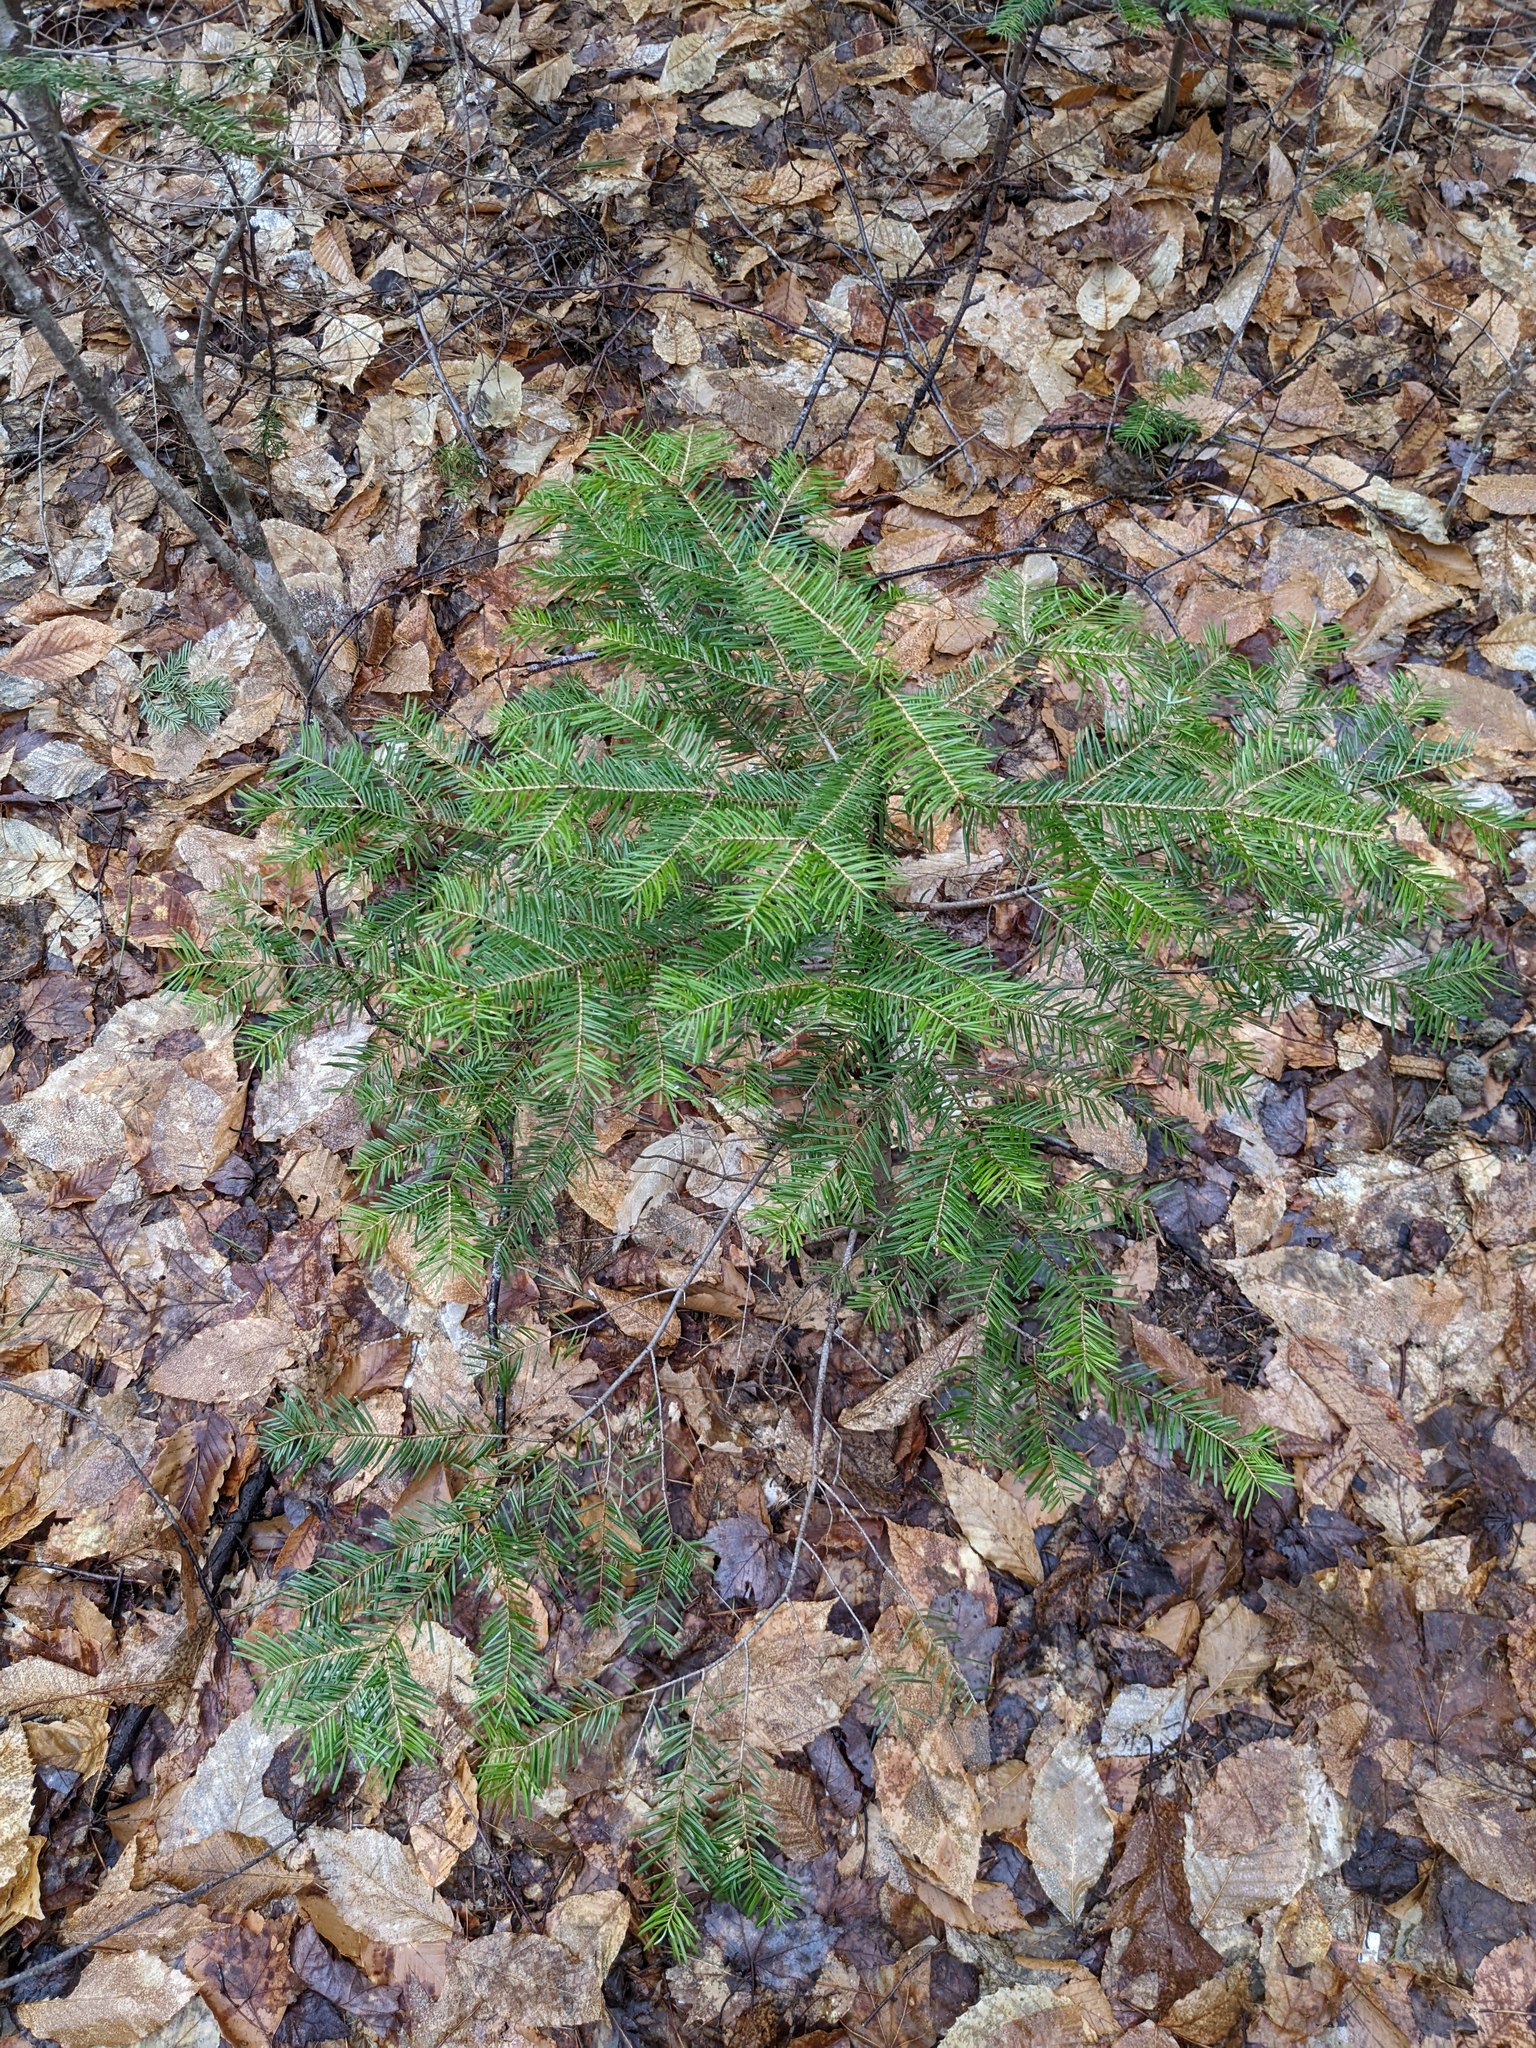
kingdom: Plantae
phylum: Tracheophyta
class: Pinopsida
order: Pinales
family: Pinaceae
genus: Abies
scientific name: Abies balsamea
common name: Balsam fir
